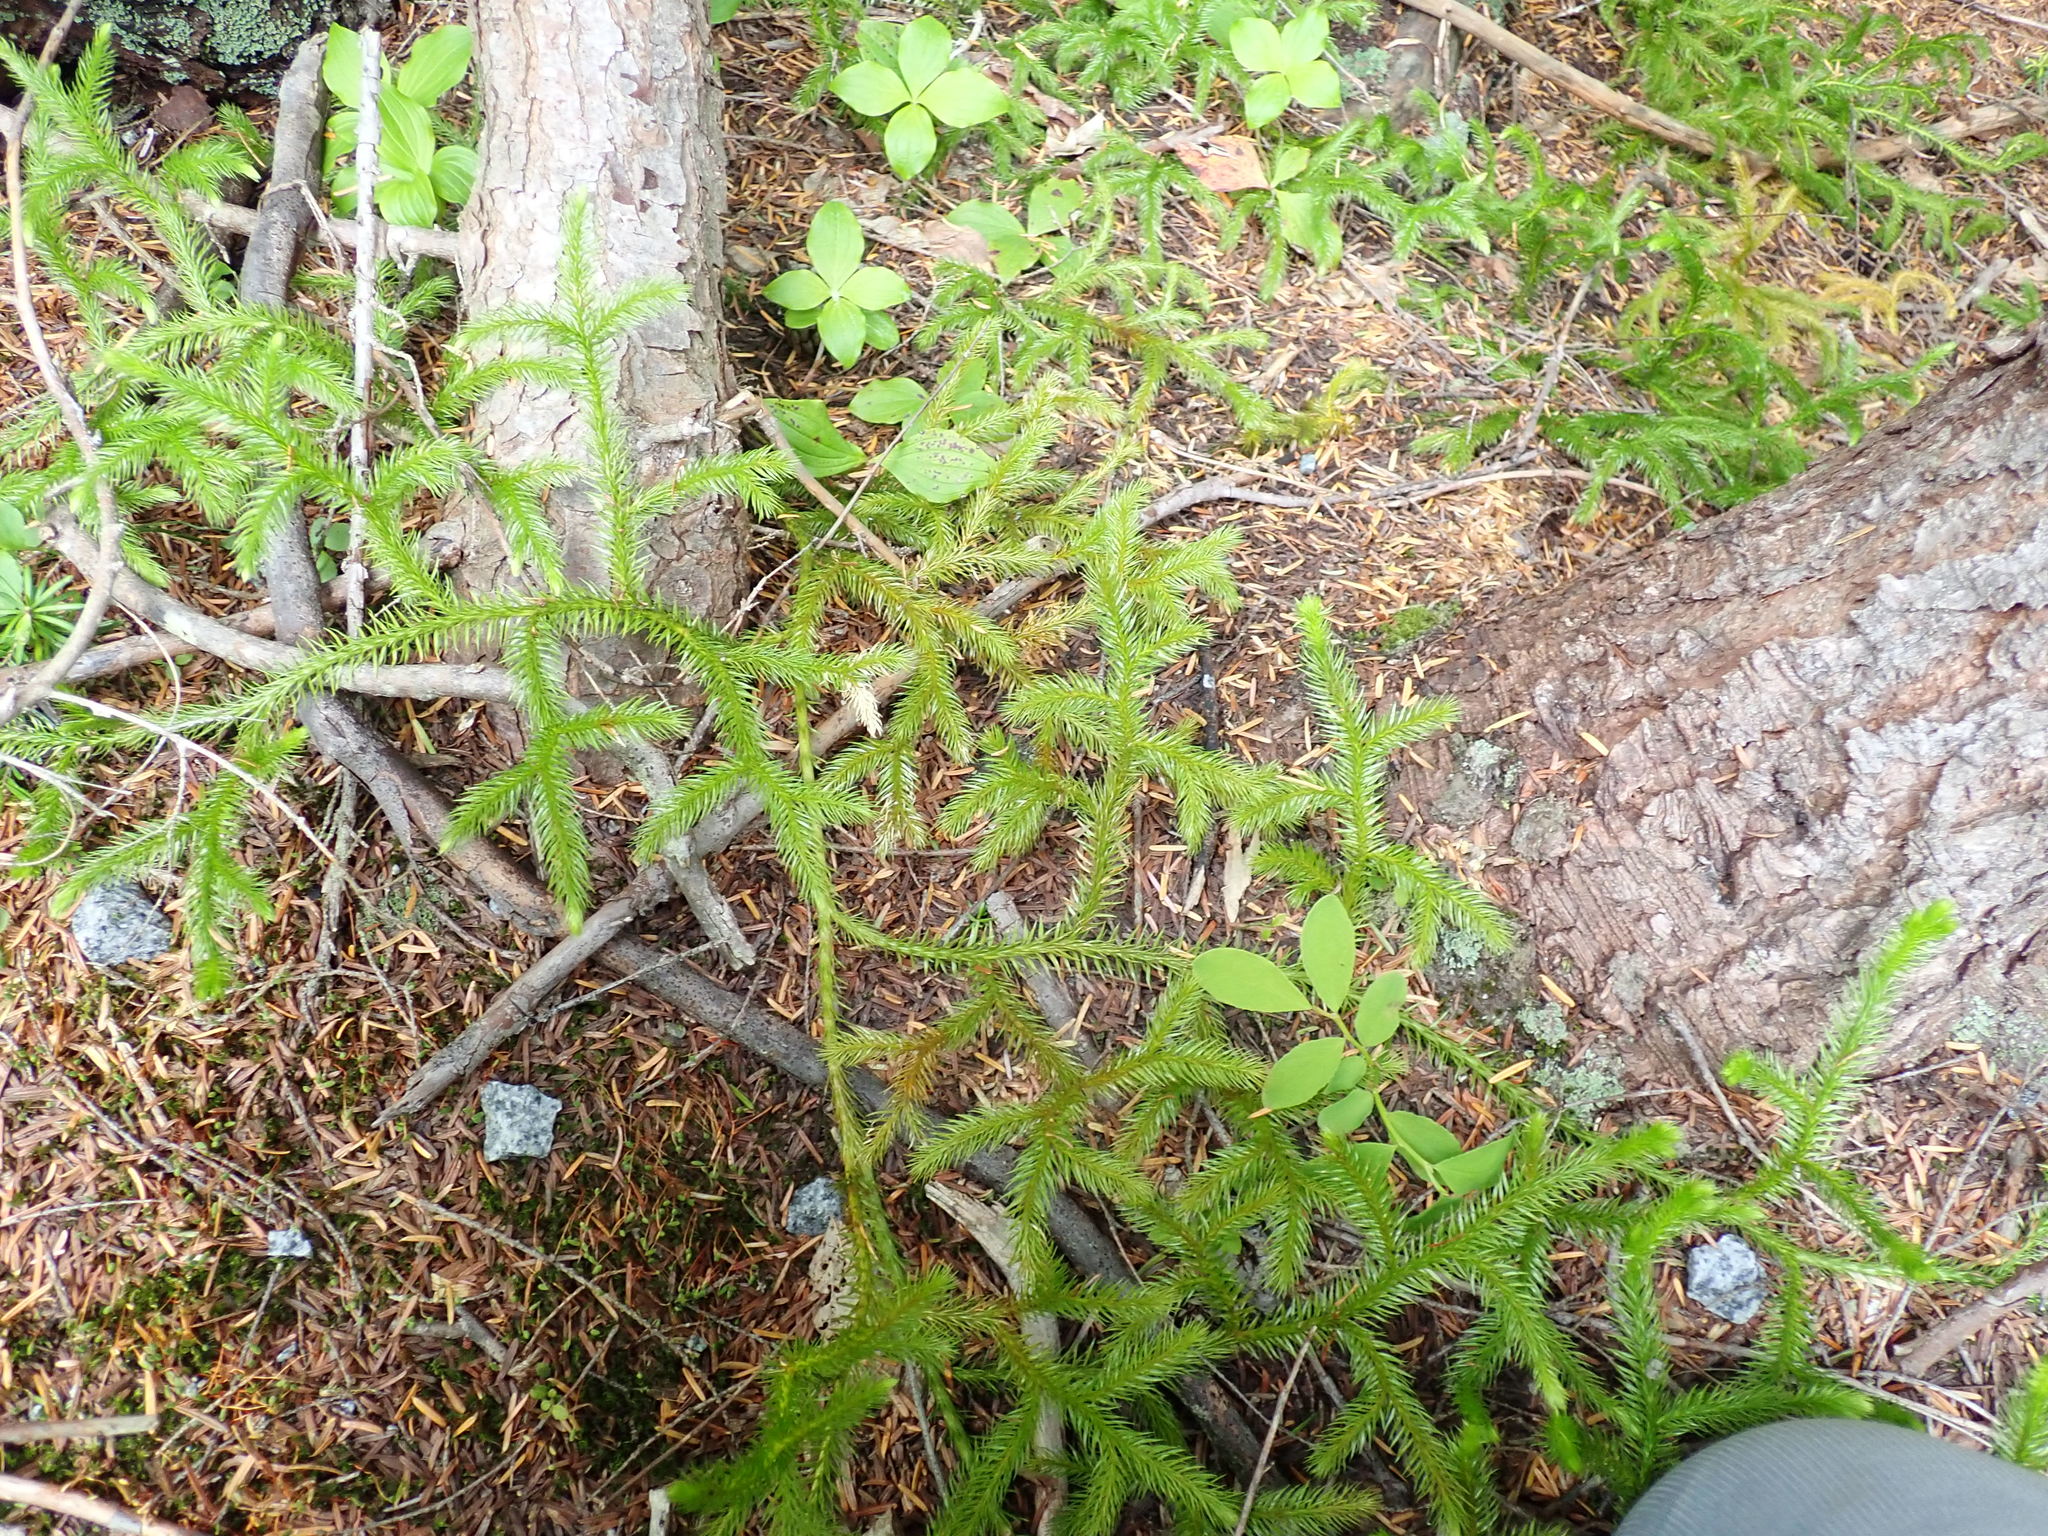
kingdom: Plantae
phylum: Tracheophyta
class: Lycopodiopsida
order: Lycopodiales
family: Lycopodiaceae
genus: Lycopodium
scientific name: Lycopodium clavatum
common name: Stag's-horn clubmoss
